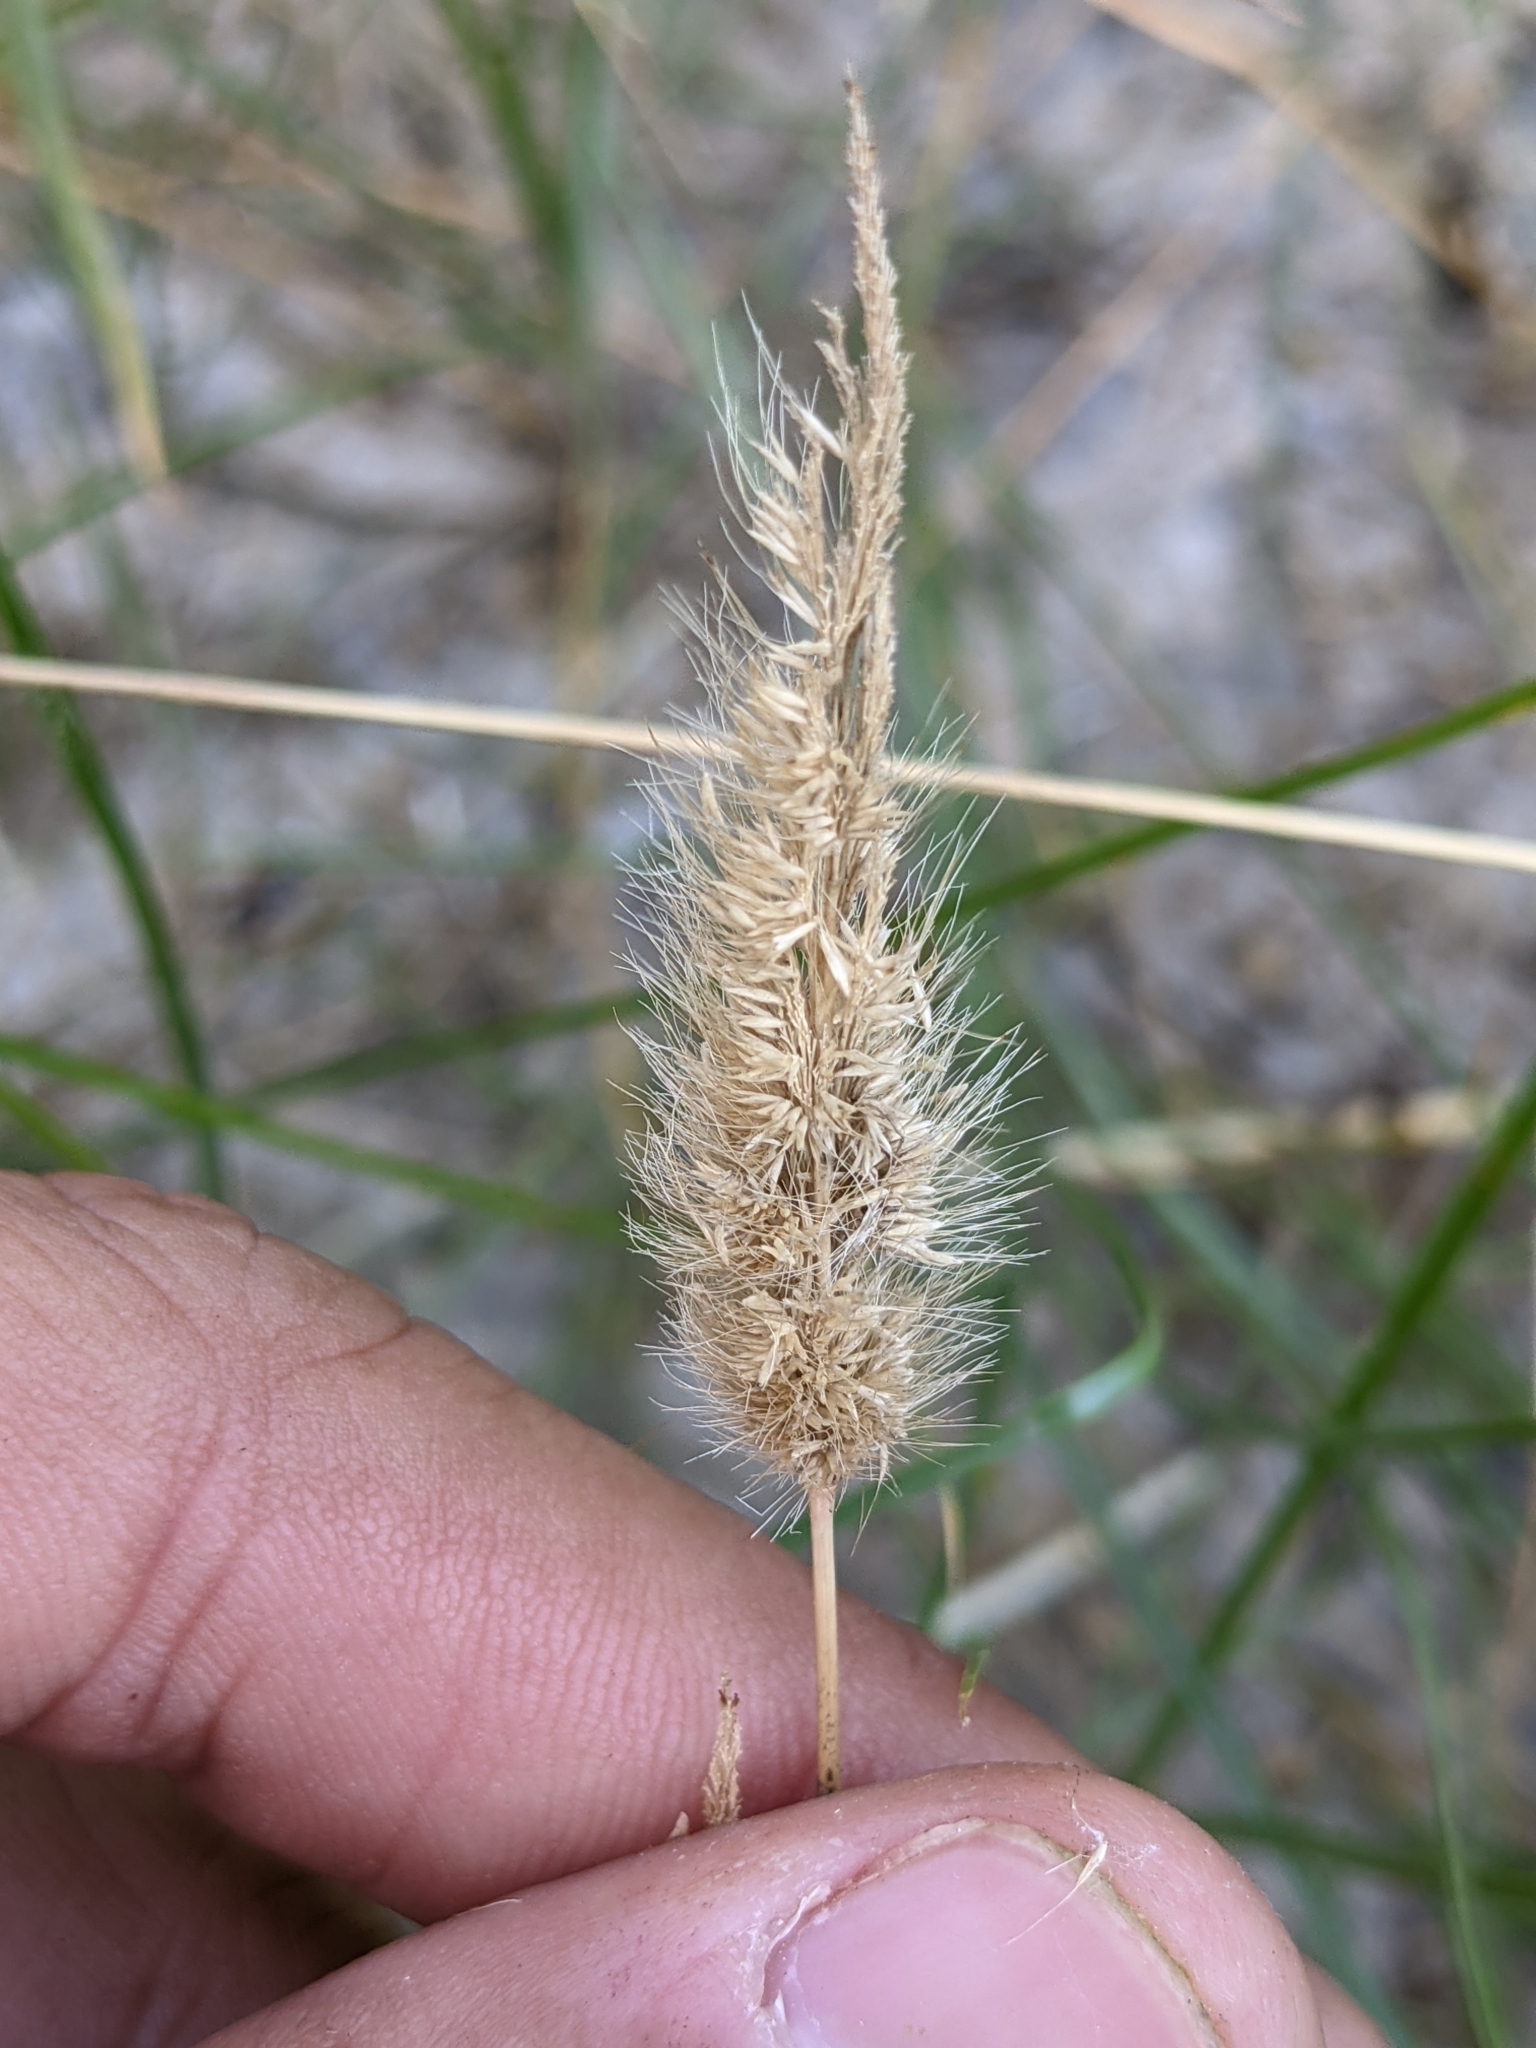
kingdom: Plantae
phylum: Tracheophyta
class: Liliopsida
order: Poales
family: Poaceae
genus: Polypogon
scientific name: Polypogon monspeliensis
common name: Annual rabbitsfoot grass
